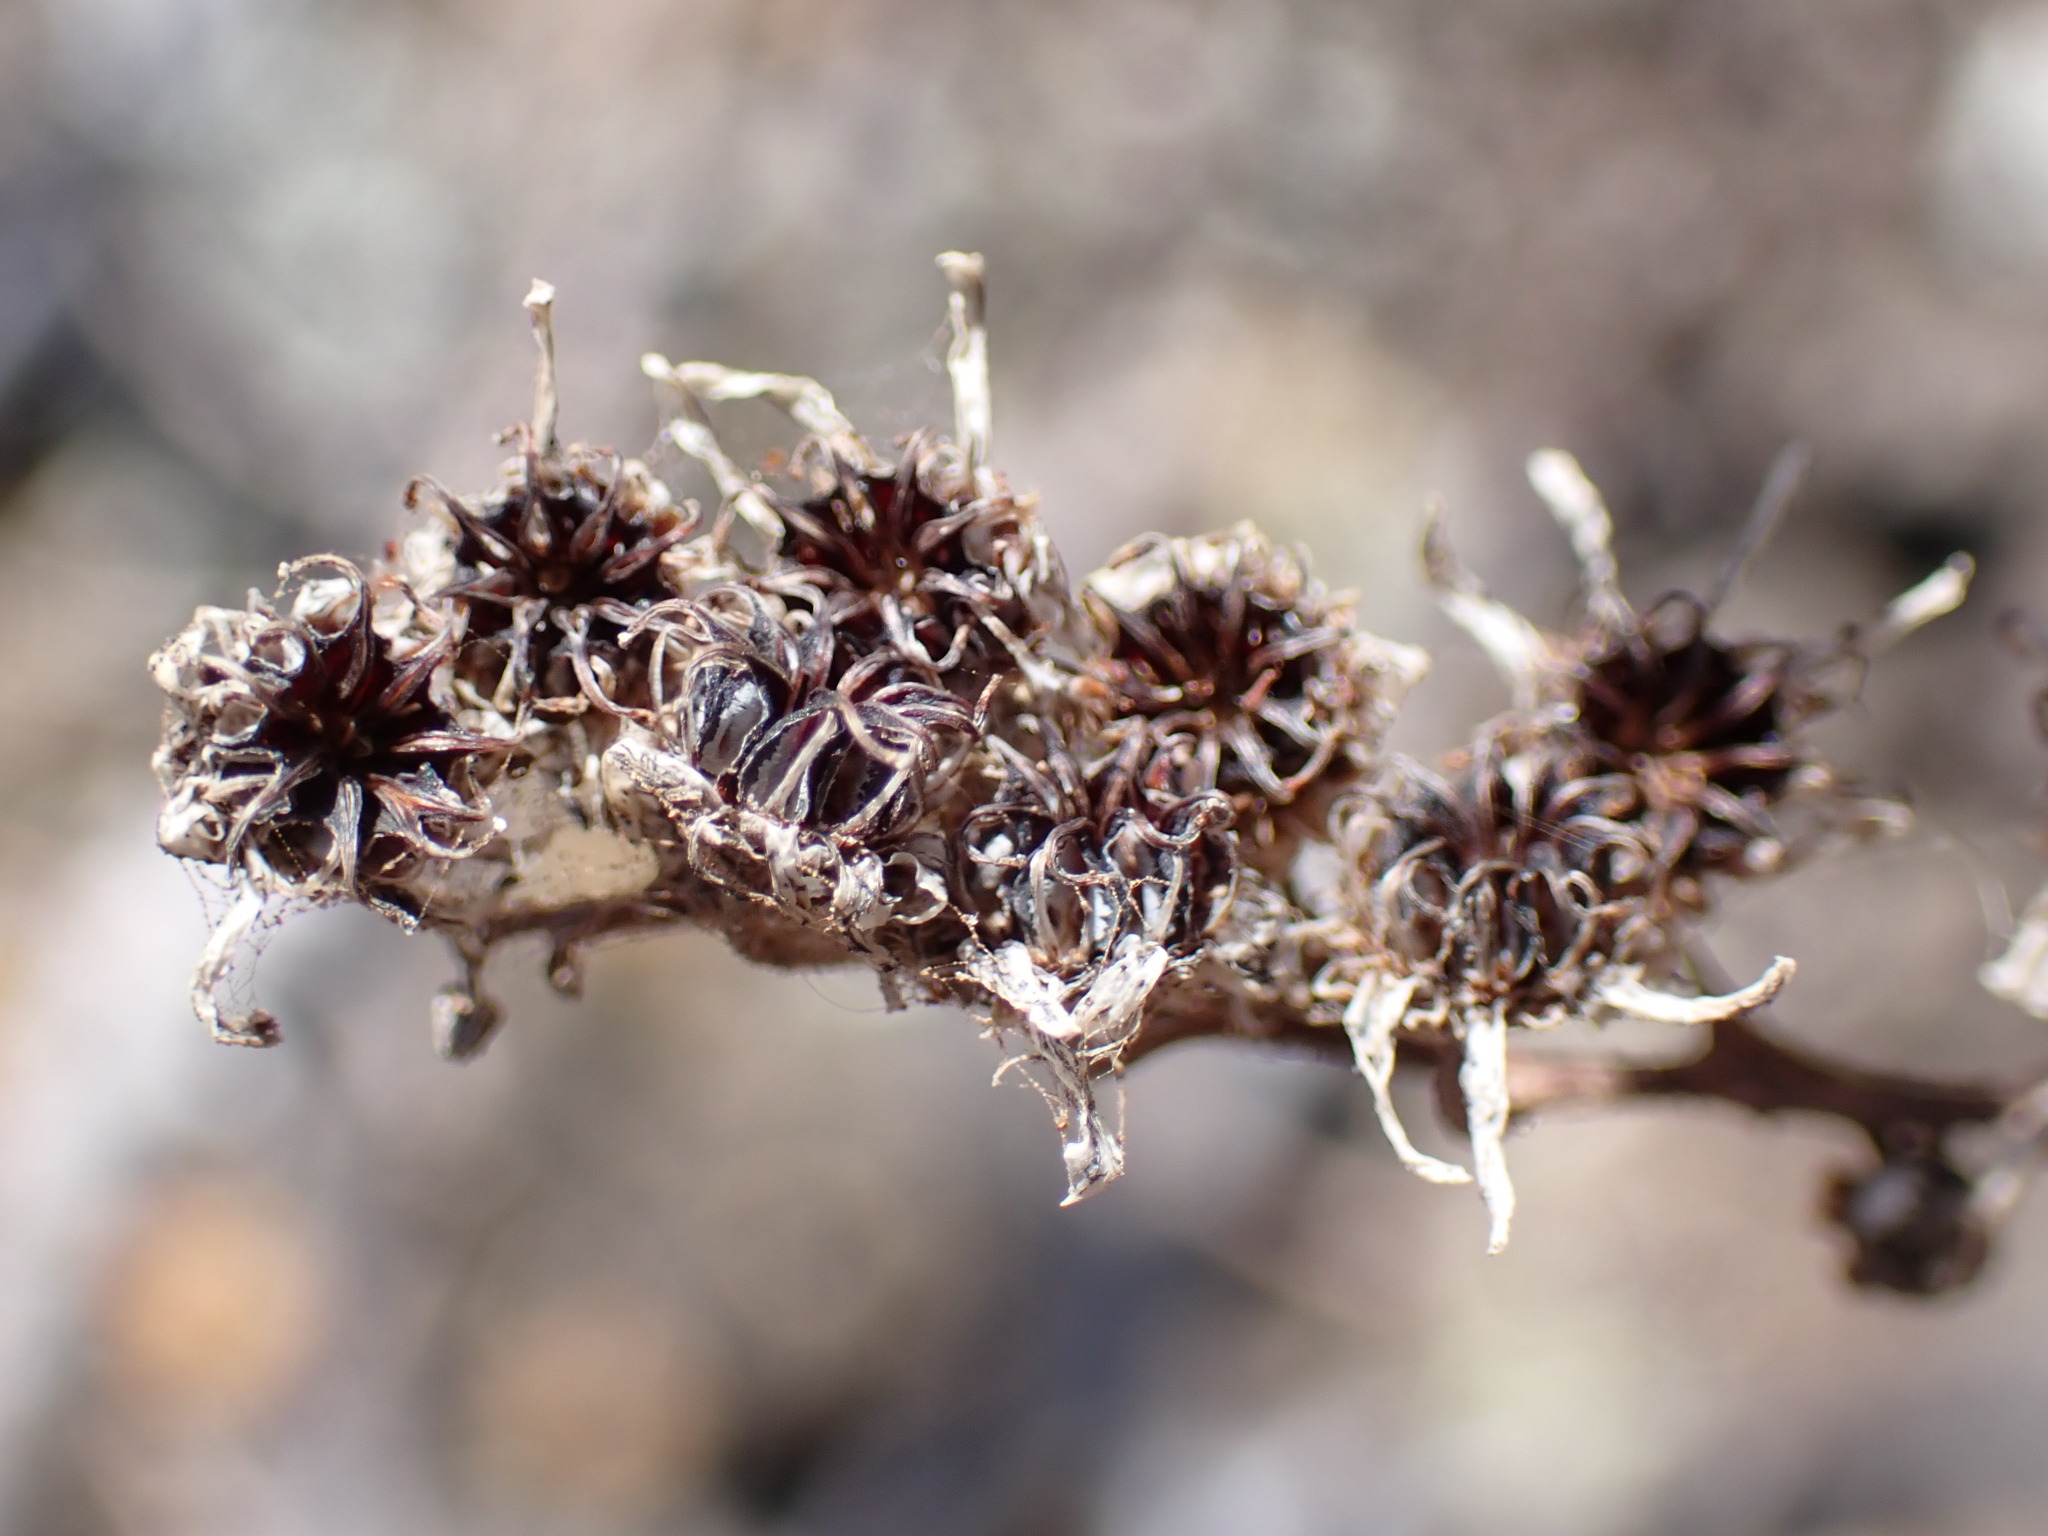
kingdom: Plantae
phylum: Tracheophyta
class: Magnoliopsida
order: Saxifragales
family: Crassulaceae
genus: Aeonium
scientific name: Aeonium arboreum
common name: Tree aeonium
